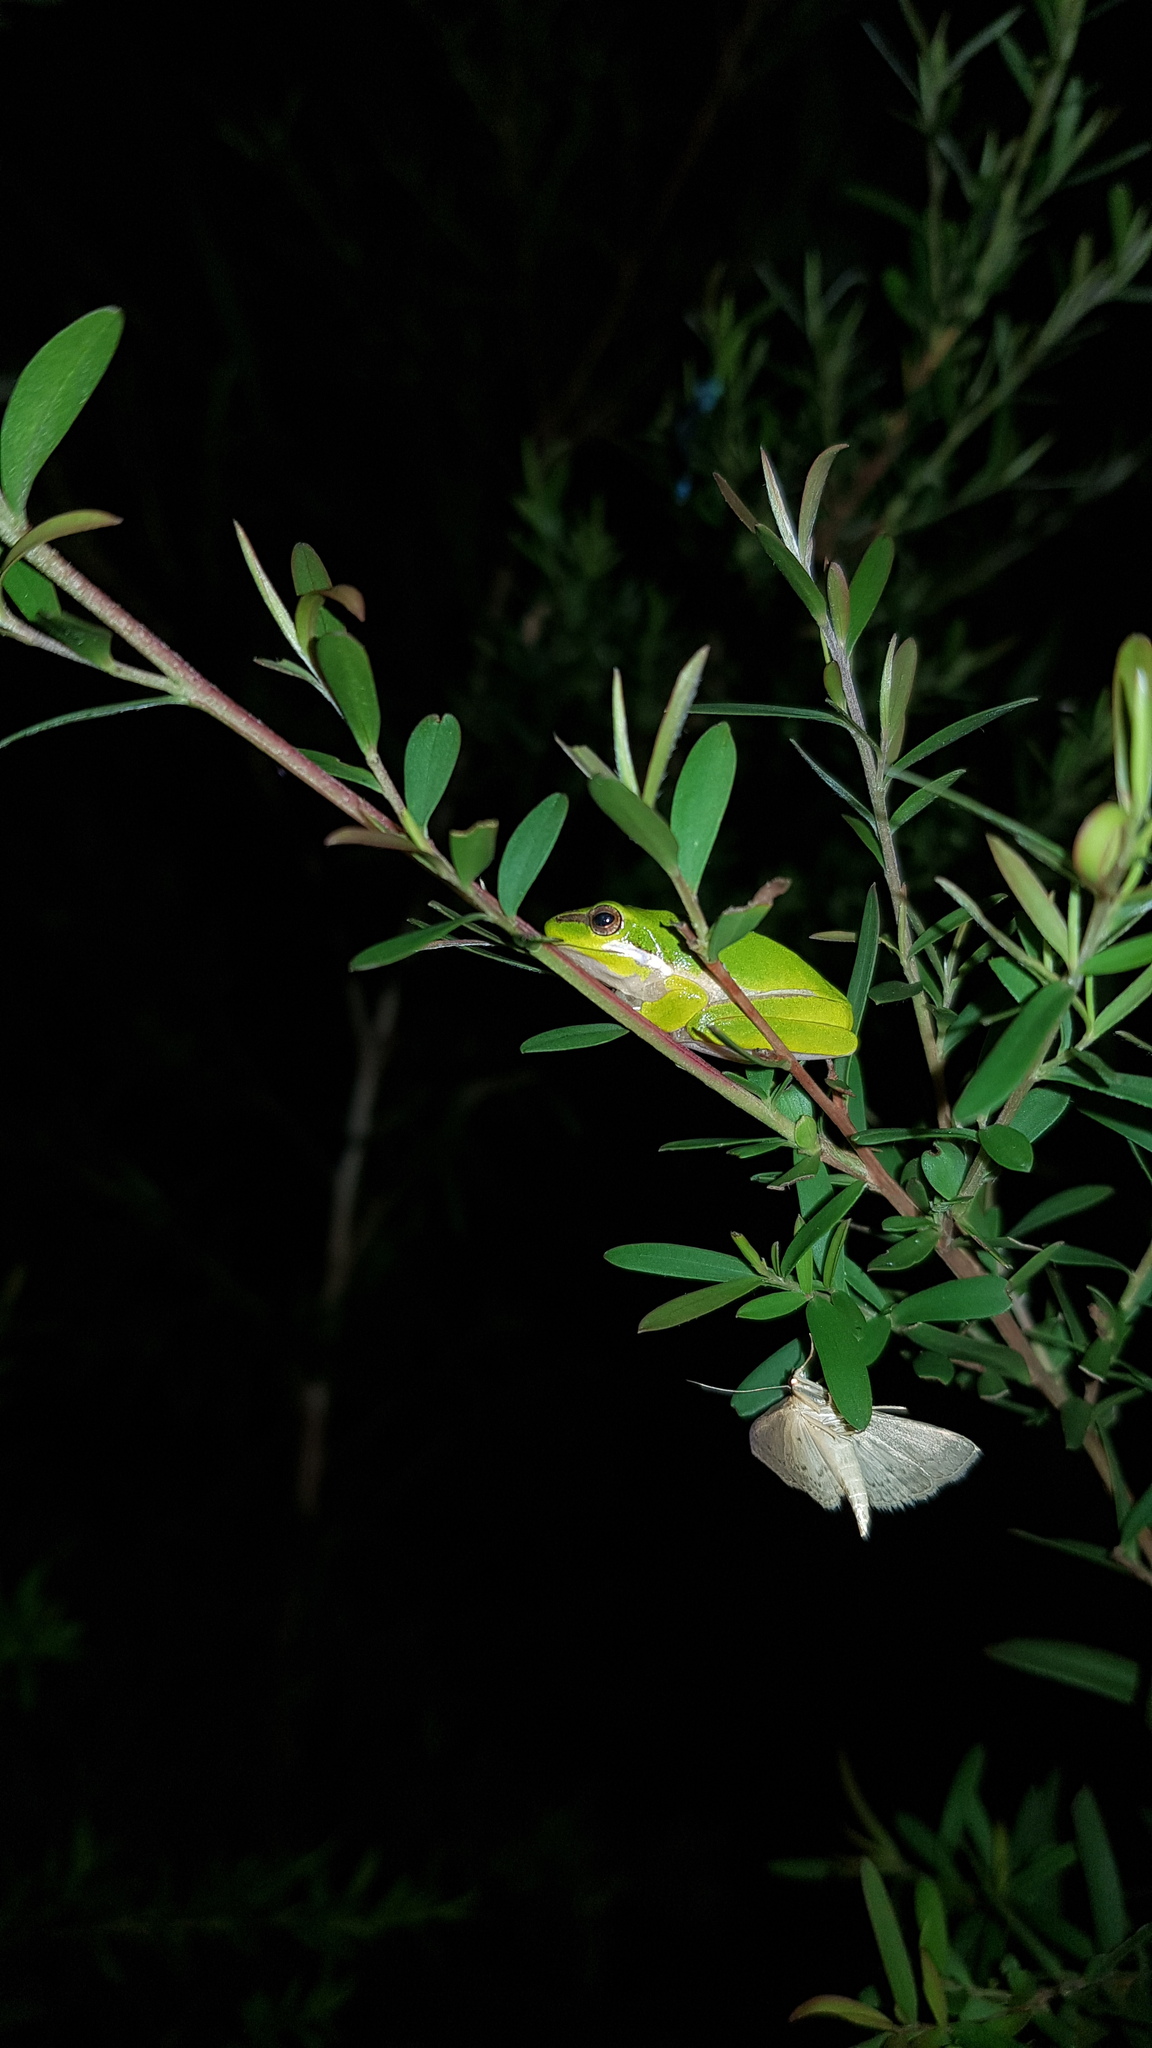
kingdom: Animalia
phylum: Chordata
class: Amphibia
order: Anura
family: Pelodryadidae
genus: Litoria
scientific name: Litoria fallax
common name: Eastern dwarf treefrog
